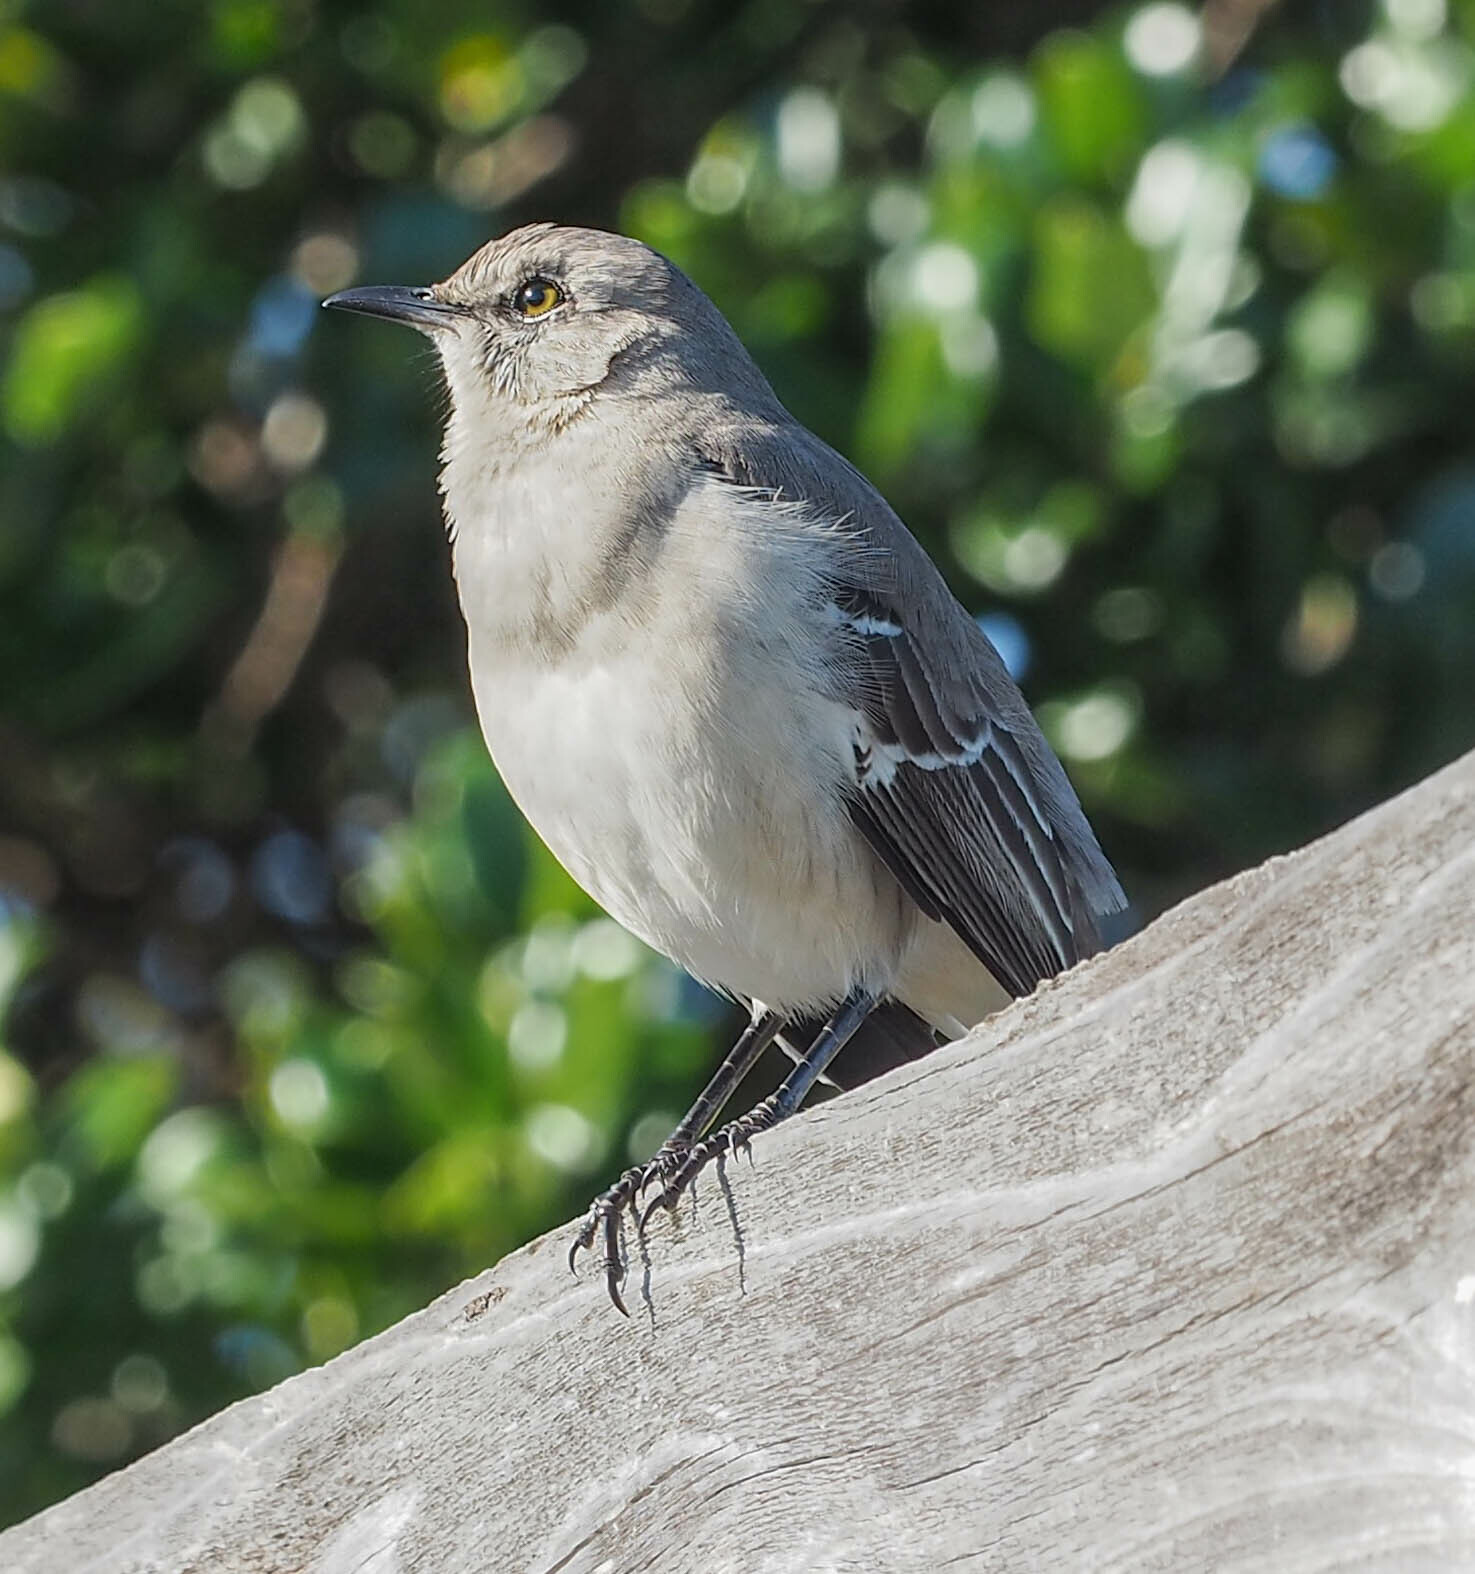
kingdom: Animalia
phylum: Chordata
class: Aves
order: Passeriformes
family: Mimidae
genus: Mimus
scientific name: Mimus polyglottos
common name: Northern mockingbird
